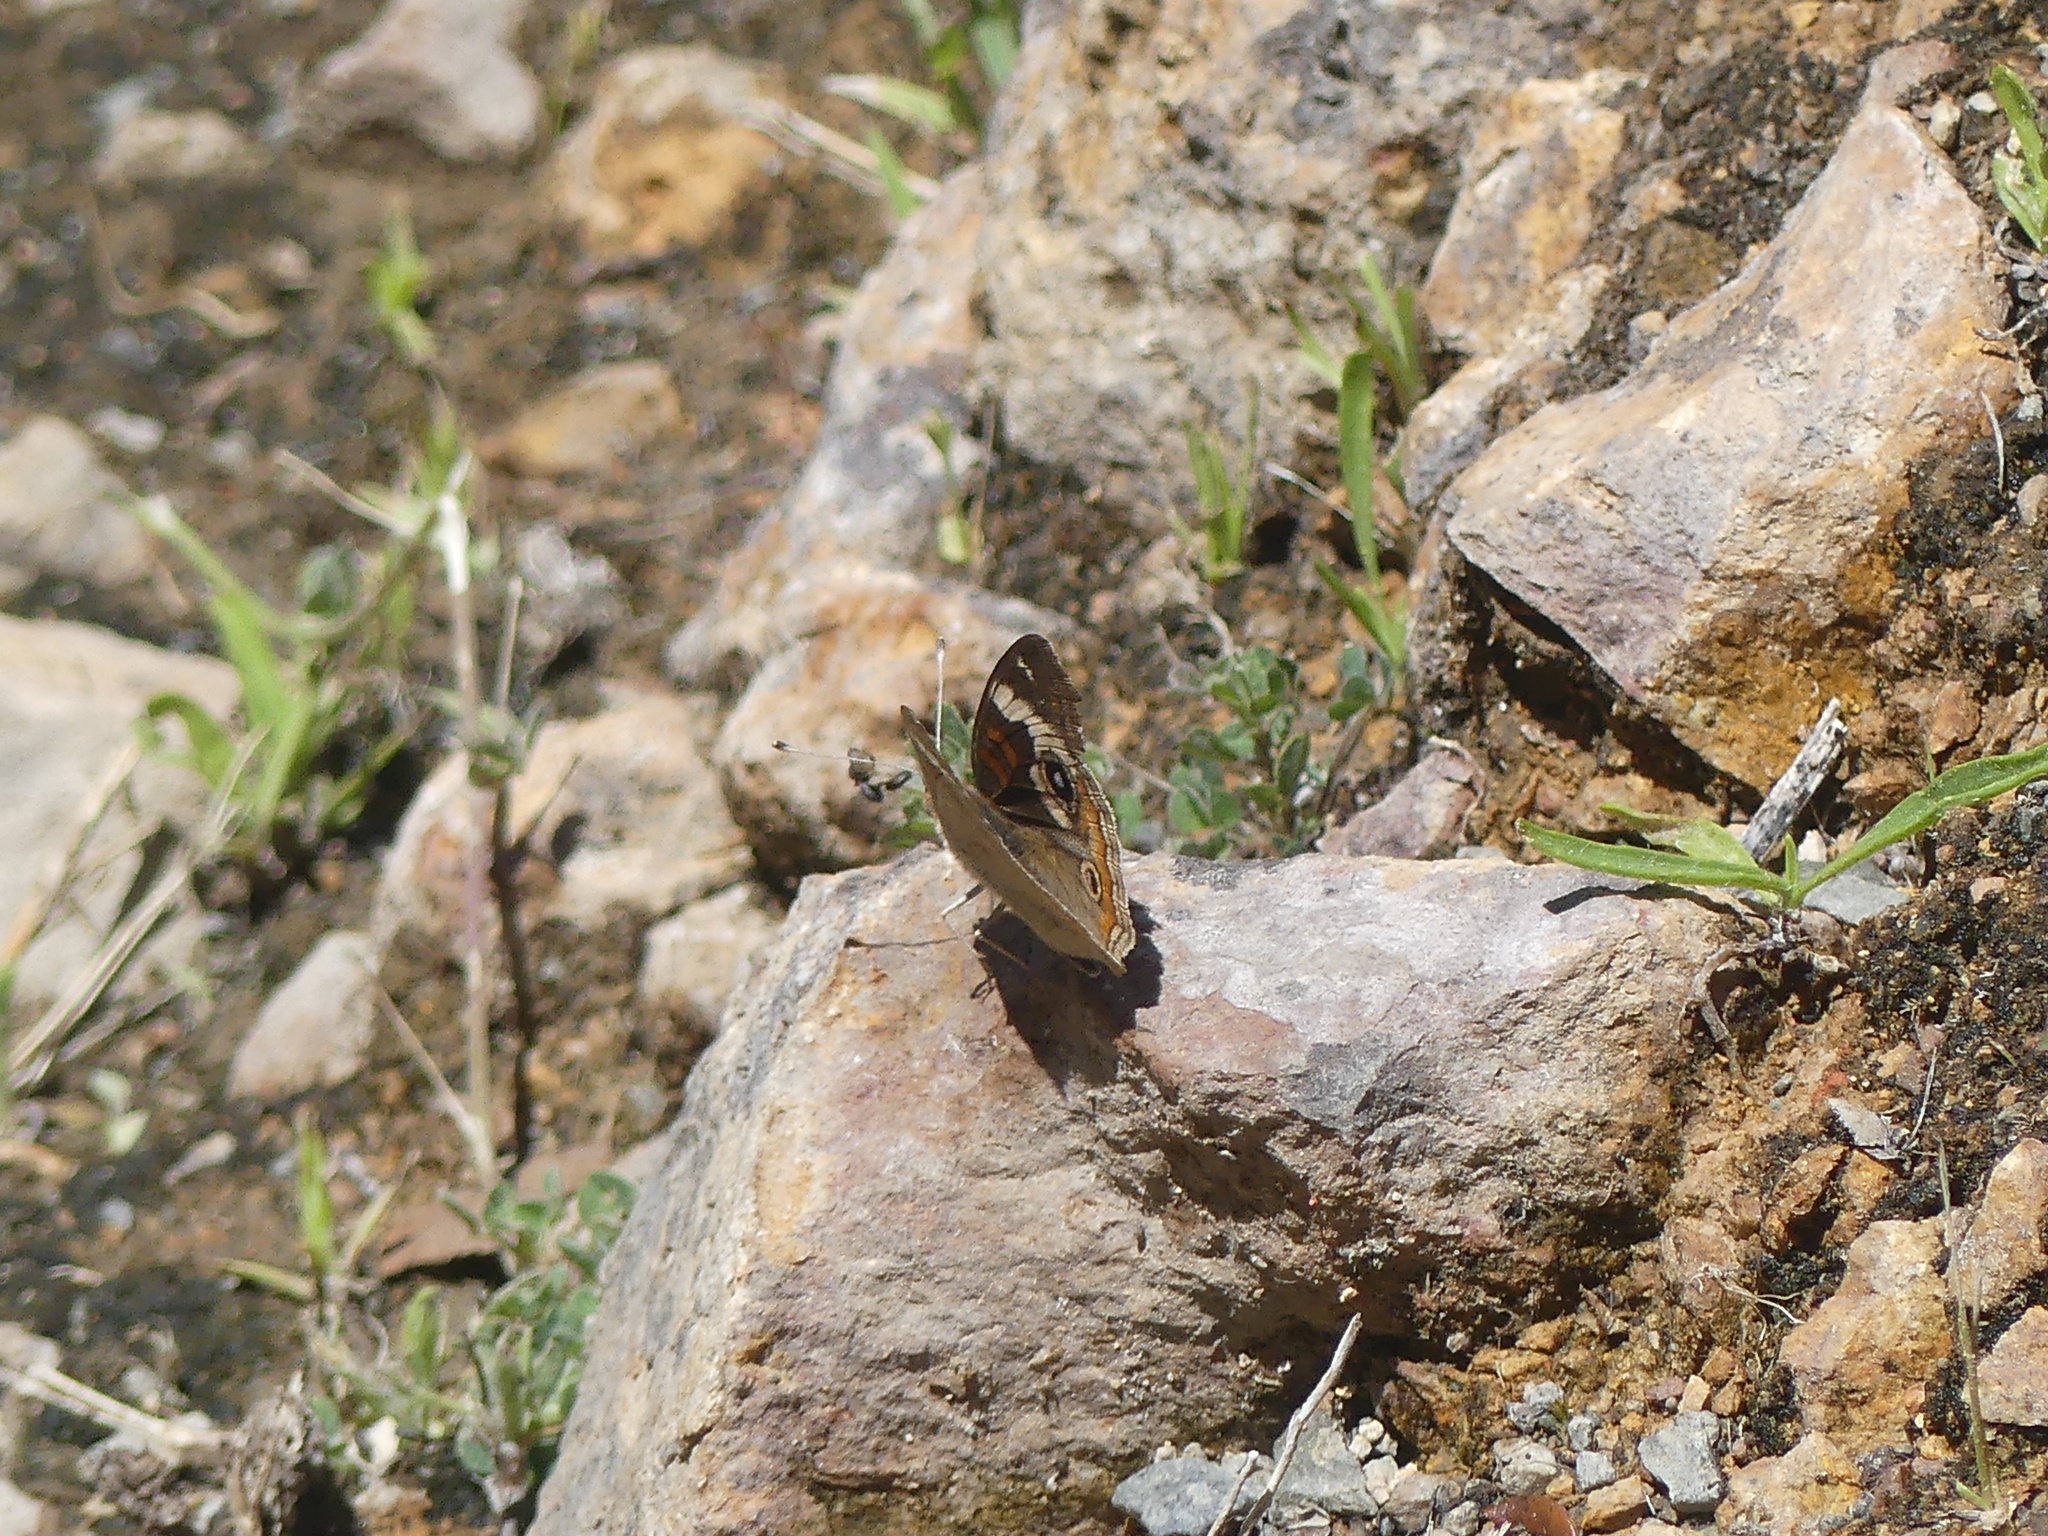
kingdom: Animalia
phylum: Arthropoda
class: Insecta
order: Lepidoptera
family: Nymphalidae
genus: Junonia
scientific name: Junonia grisea
